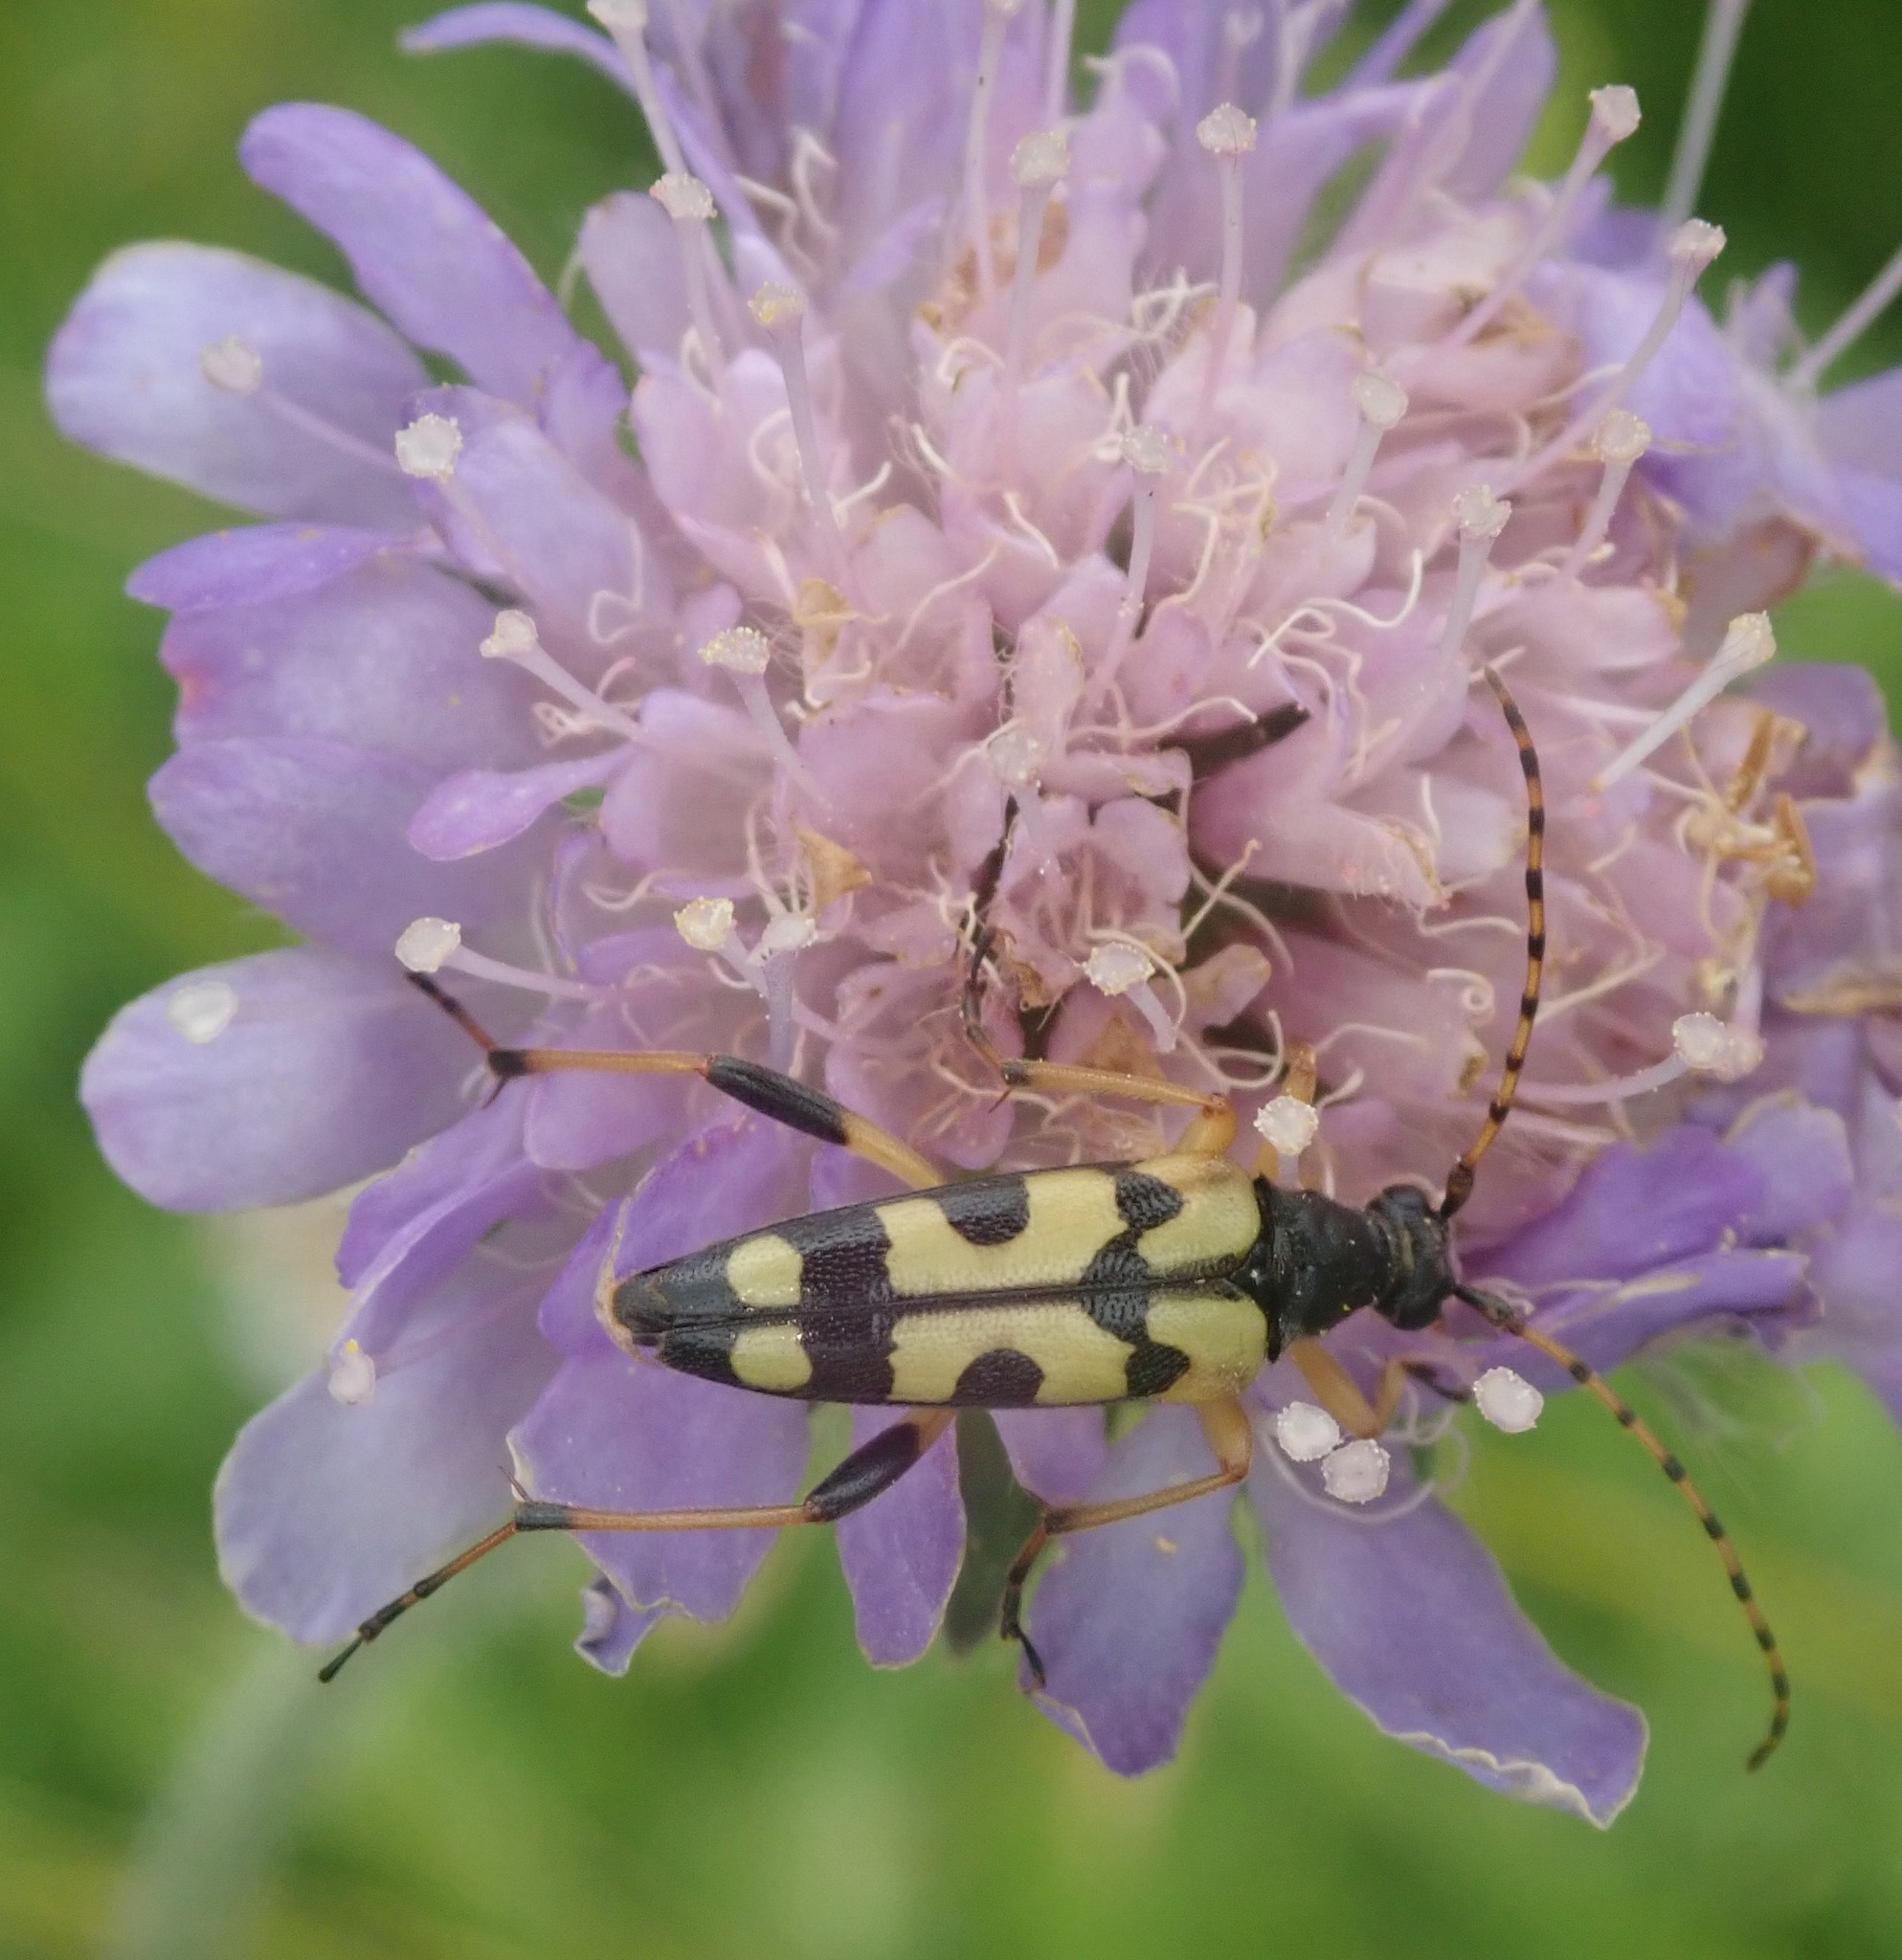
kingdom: Animalia
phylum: Arthropoda
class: Insecta
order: Coleoptera
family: Cerambycidae
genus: Rutpela
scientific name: Rutpela maculata
